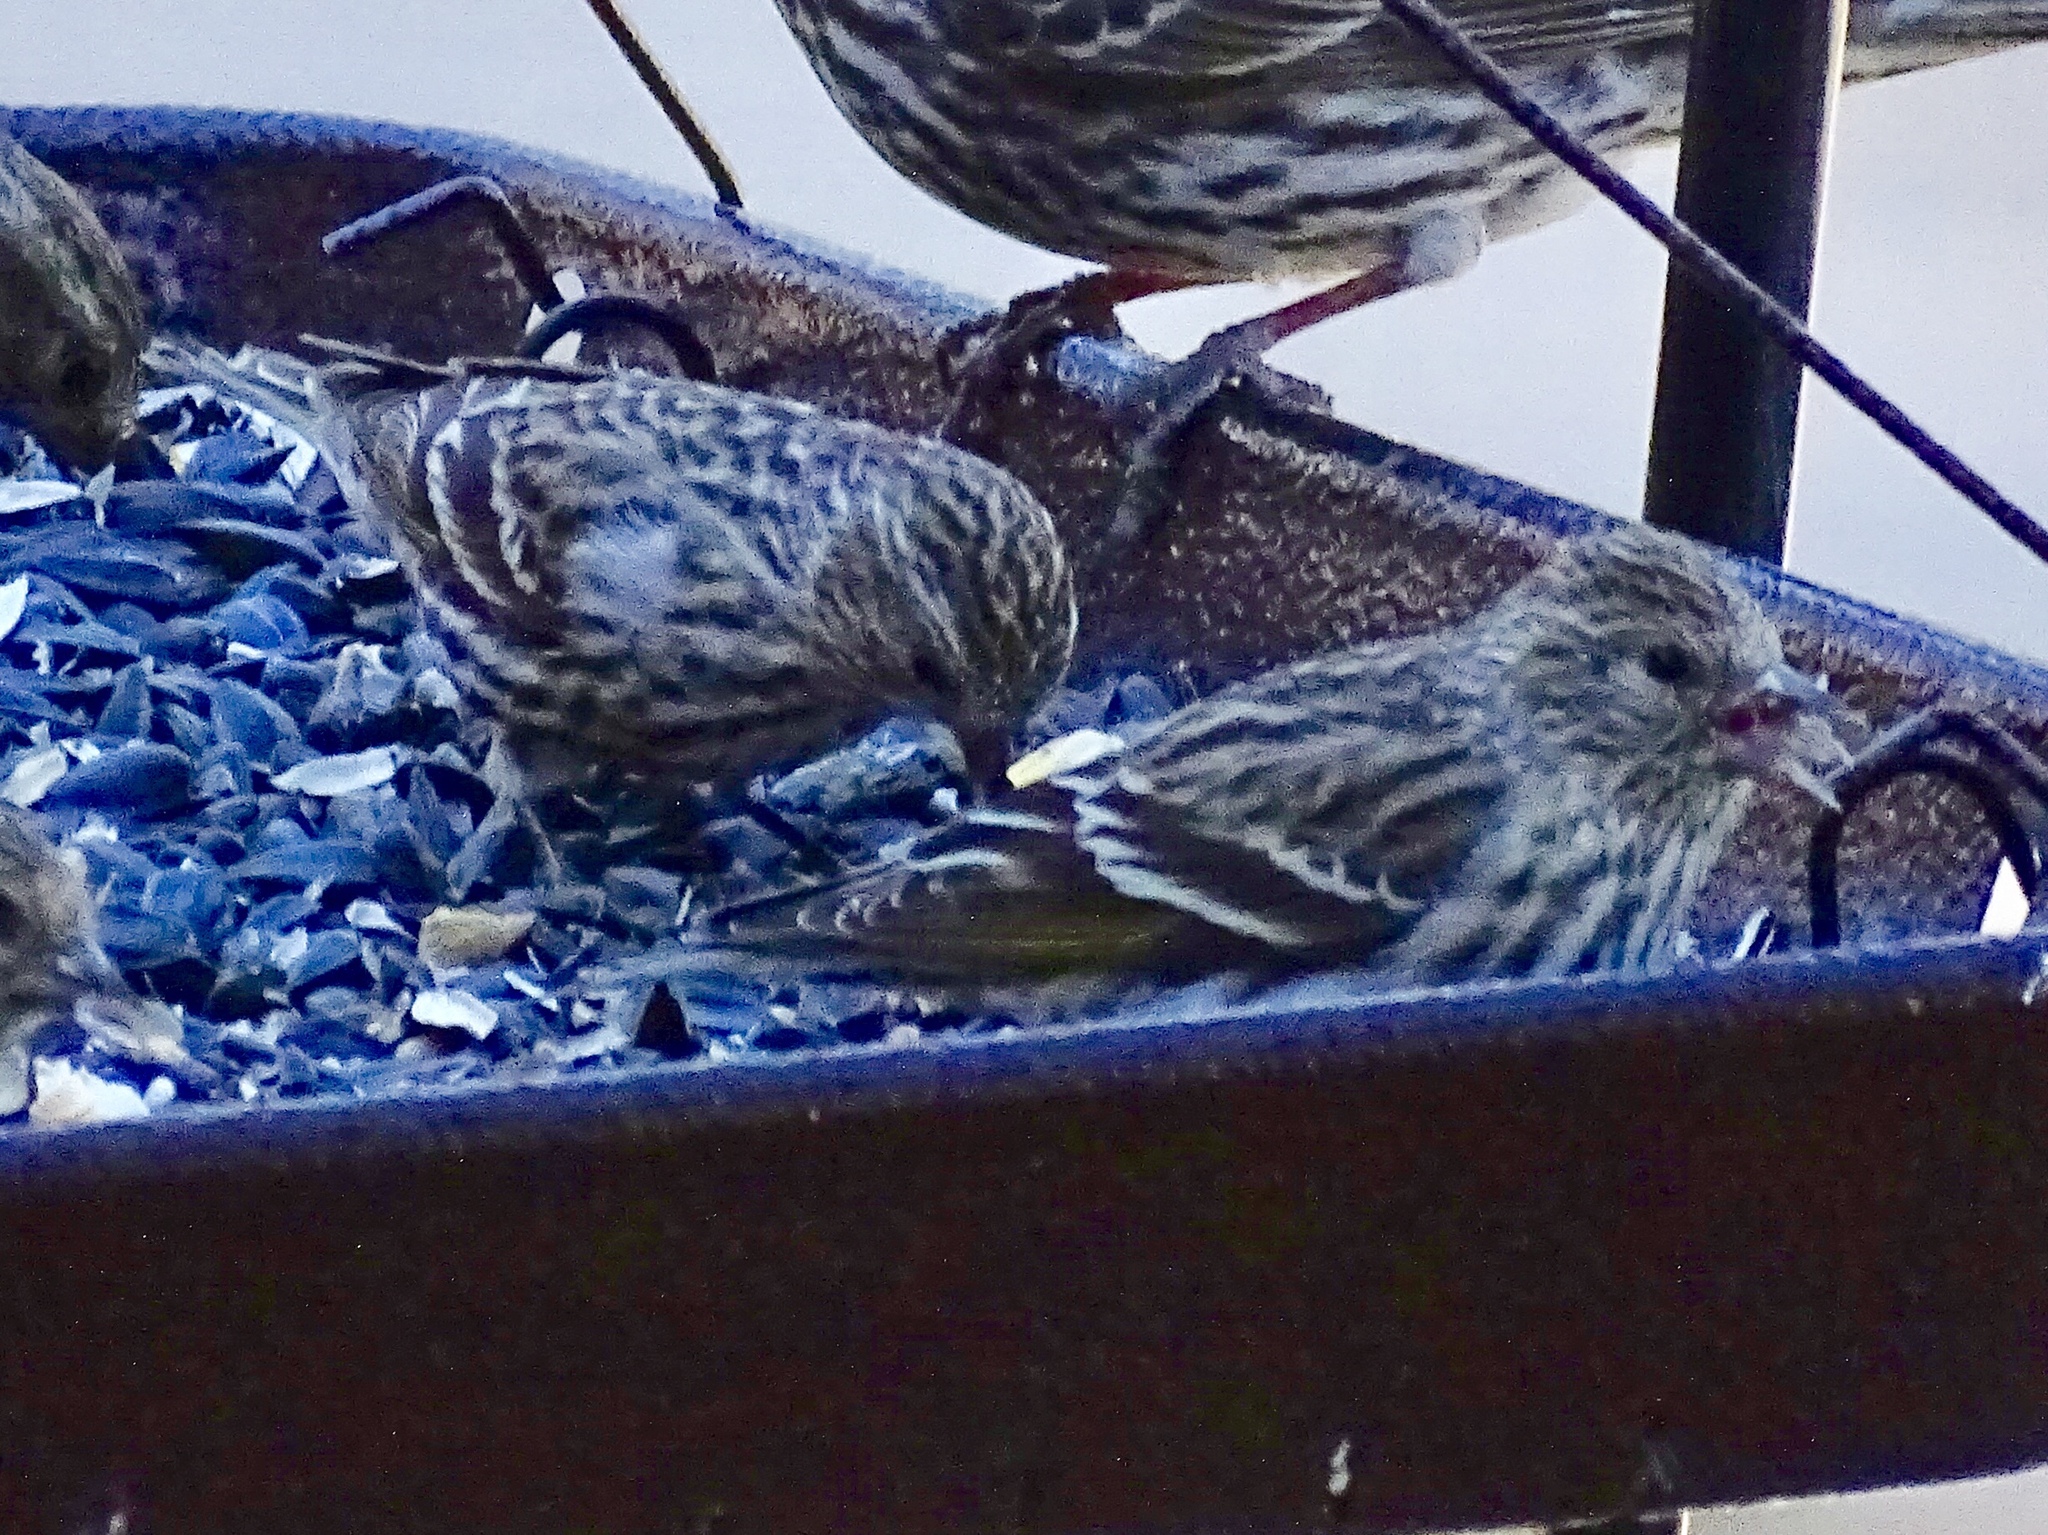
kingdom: Animalia
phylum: Chordata
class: Aves
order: Passeriformes
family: Fringillidae
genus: Spinus
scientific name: Spinus pinus
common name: Pine siskin
